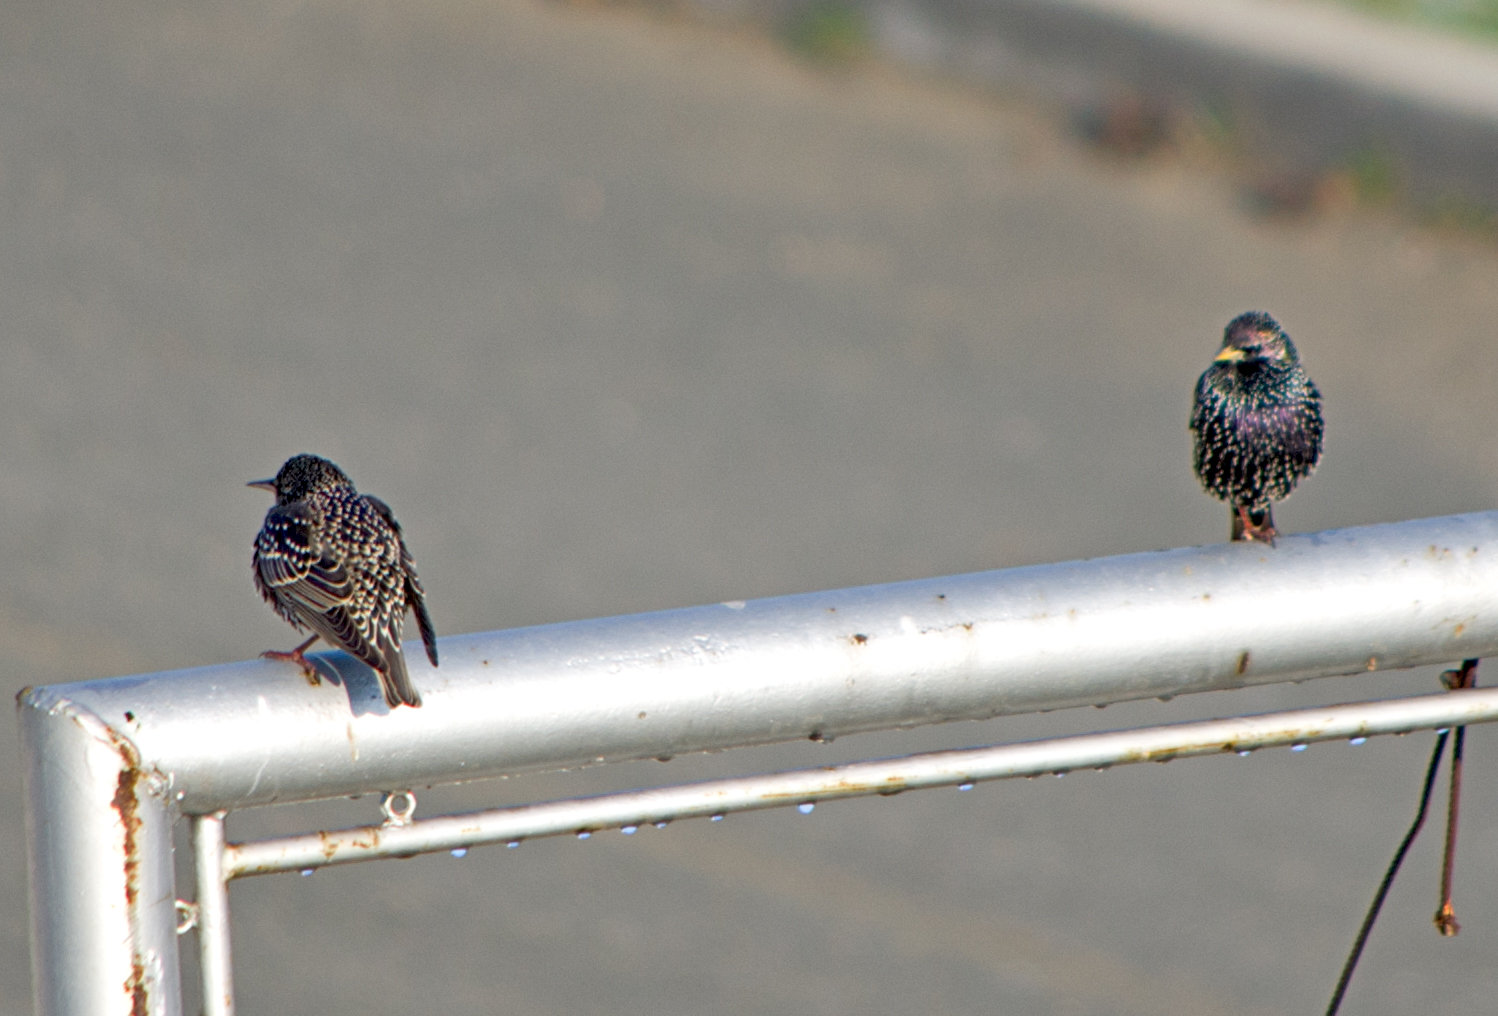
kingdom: Animalia
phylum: Chordata
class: Aves
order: Passeriformes
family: Sturnidae
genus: Sturnus
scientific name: Sturnus vulgaris
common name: Common starling
